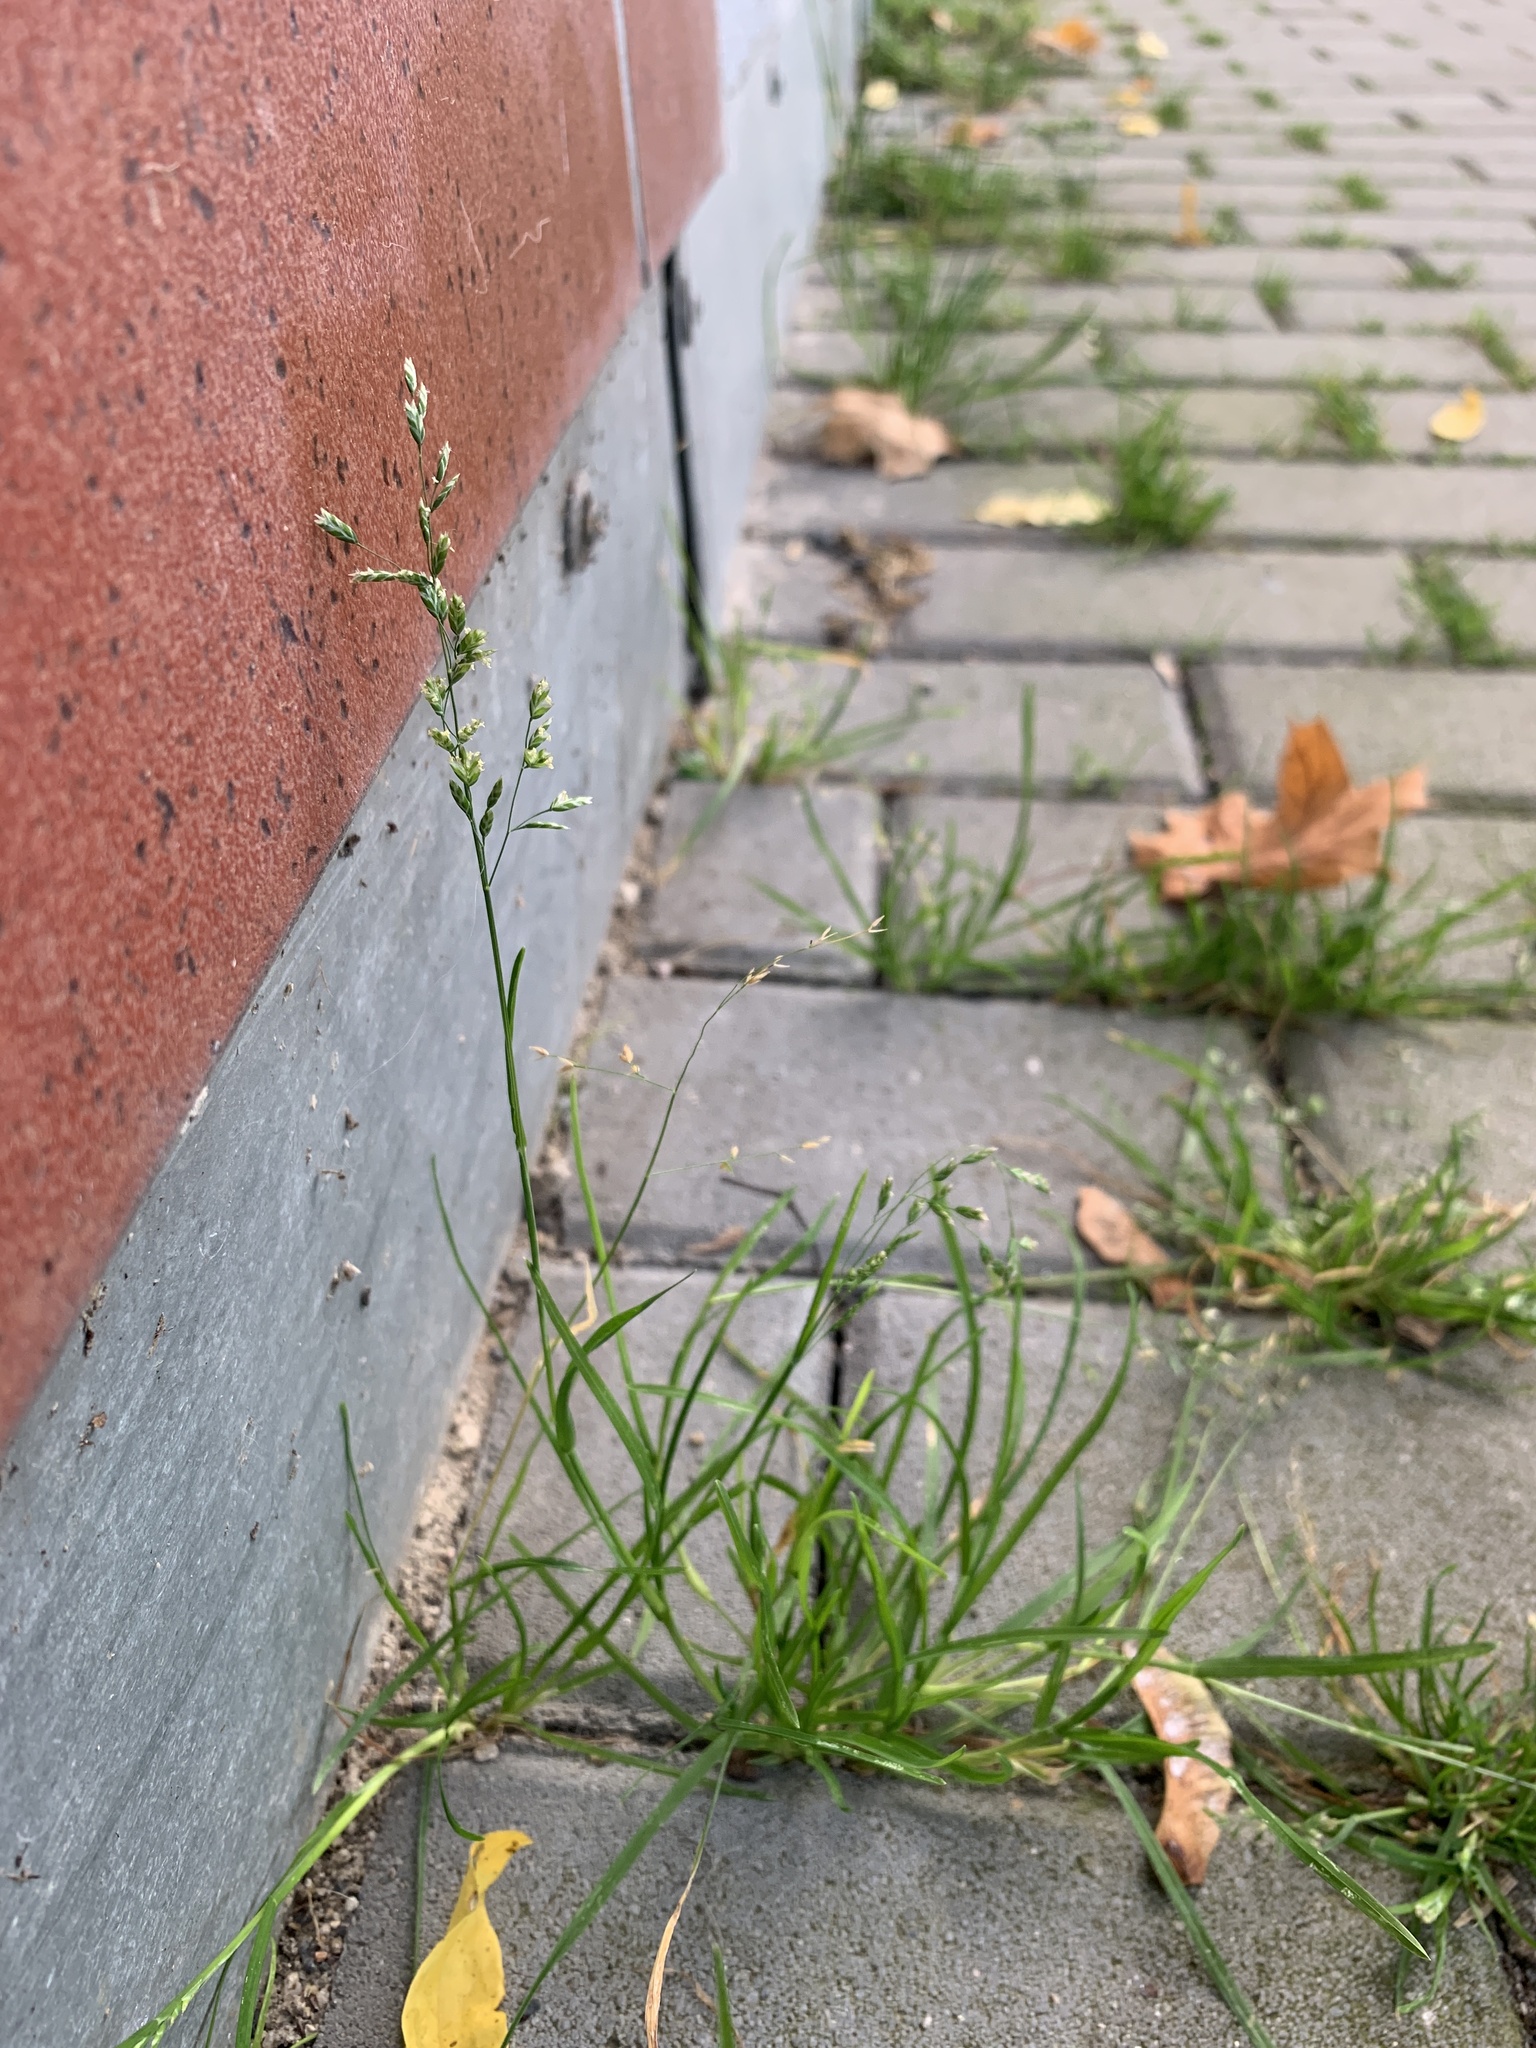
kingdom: Plantae
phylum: Tracheophyta
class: Liliopsida
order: Poales
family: Poaceae
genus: Poa
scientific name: Poa annua
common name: Annual bluegrass
